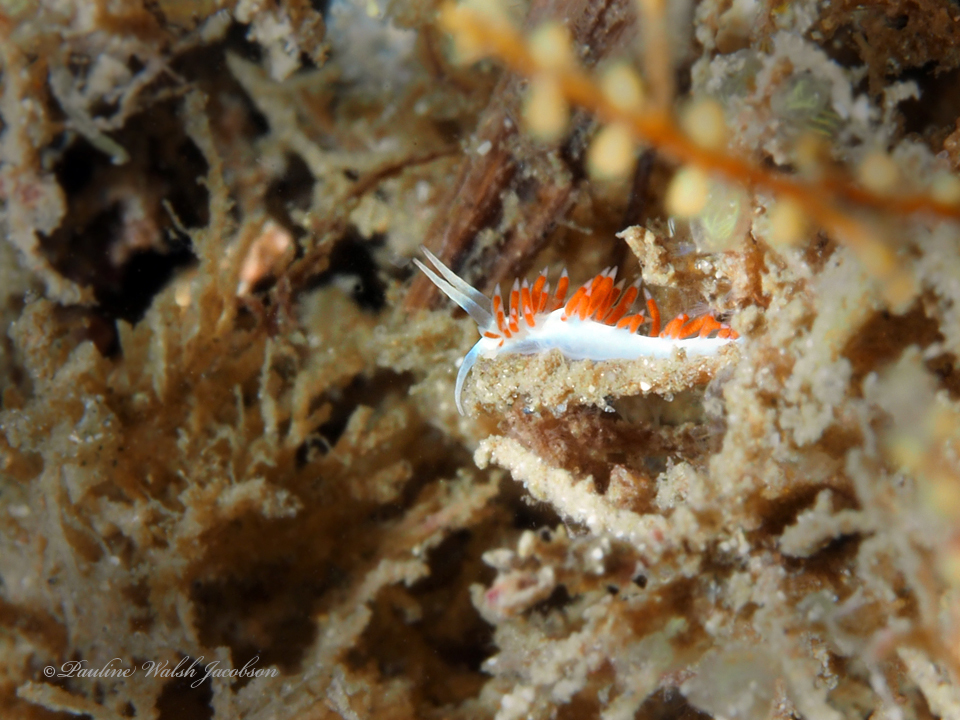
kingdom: Animalia
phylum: Mollusca
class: Gastropoda
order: Nudibranchia
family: Flabellinidae
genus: Flabellina
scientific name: Flabellina dushia
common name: Dushia flabellina
